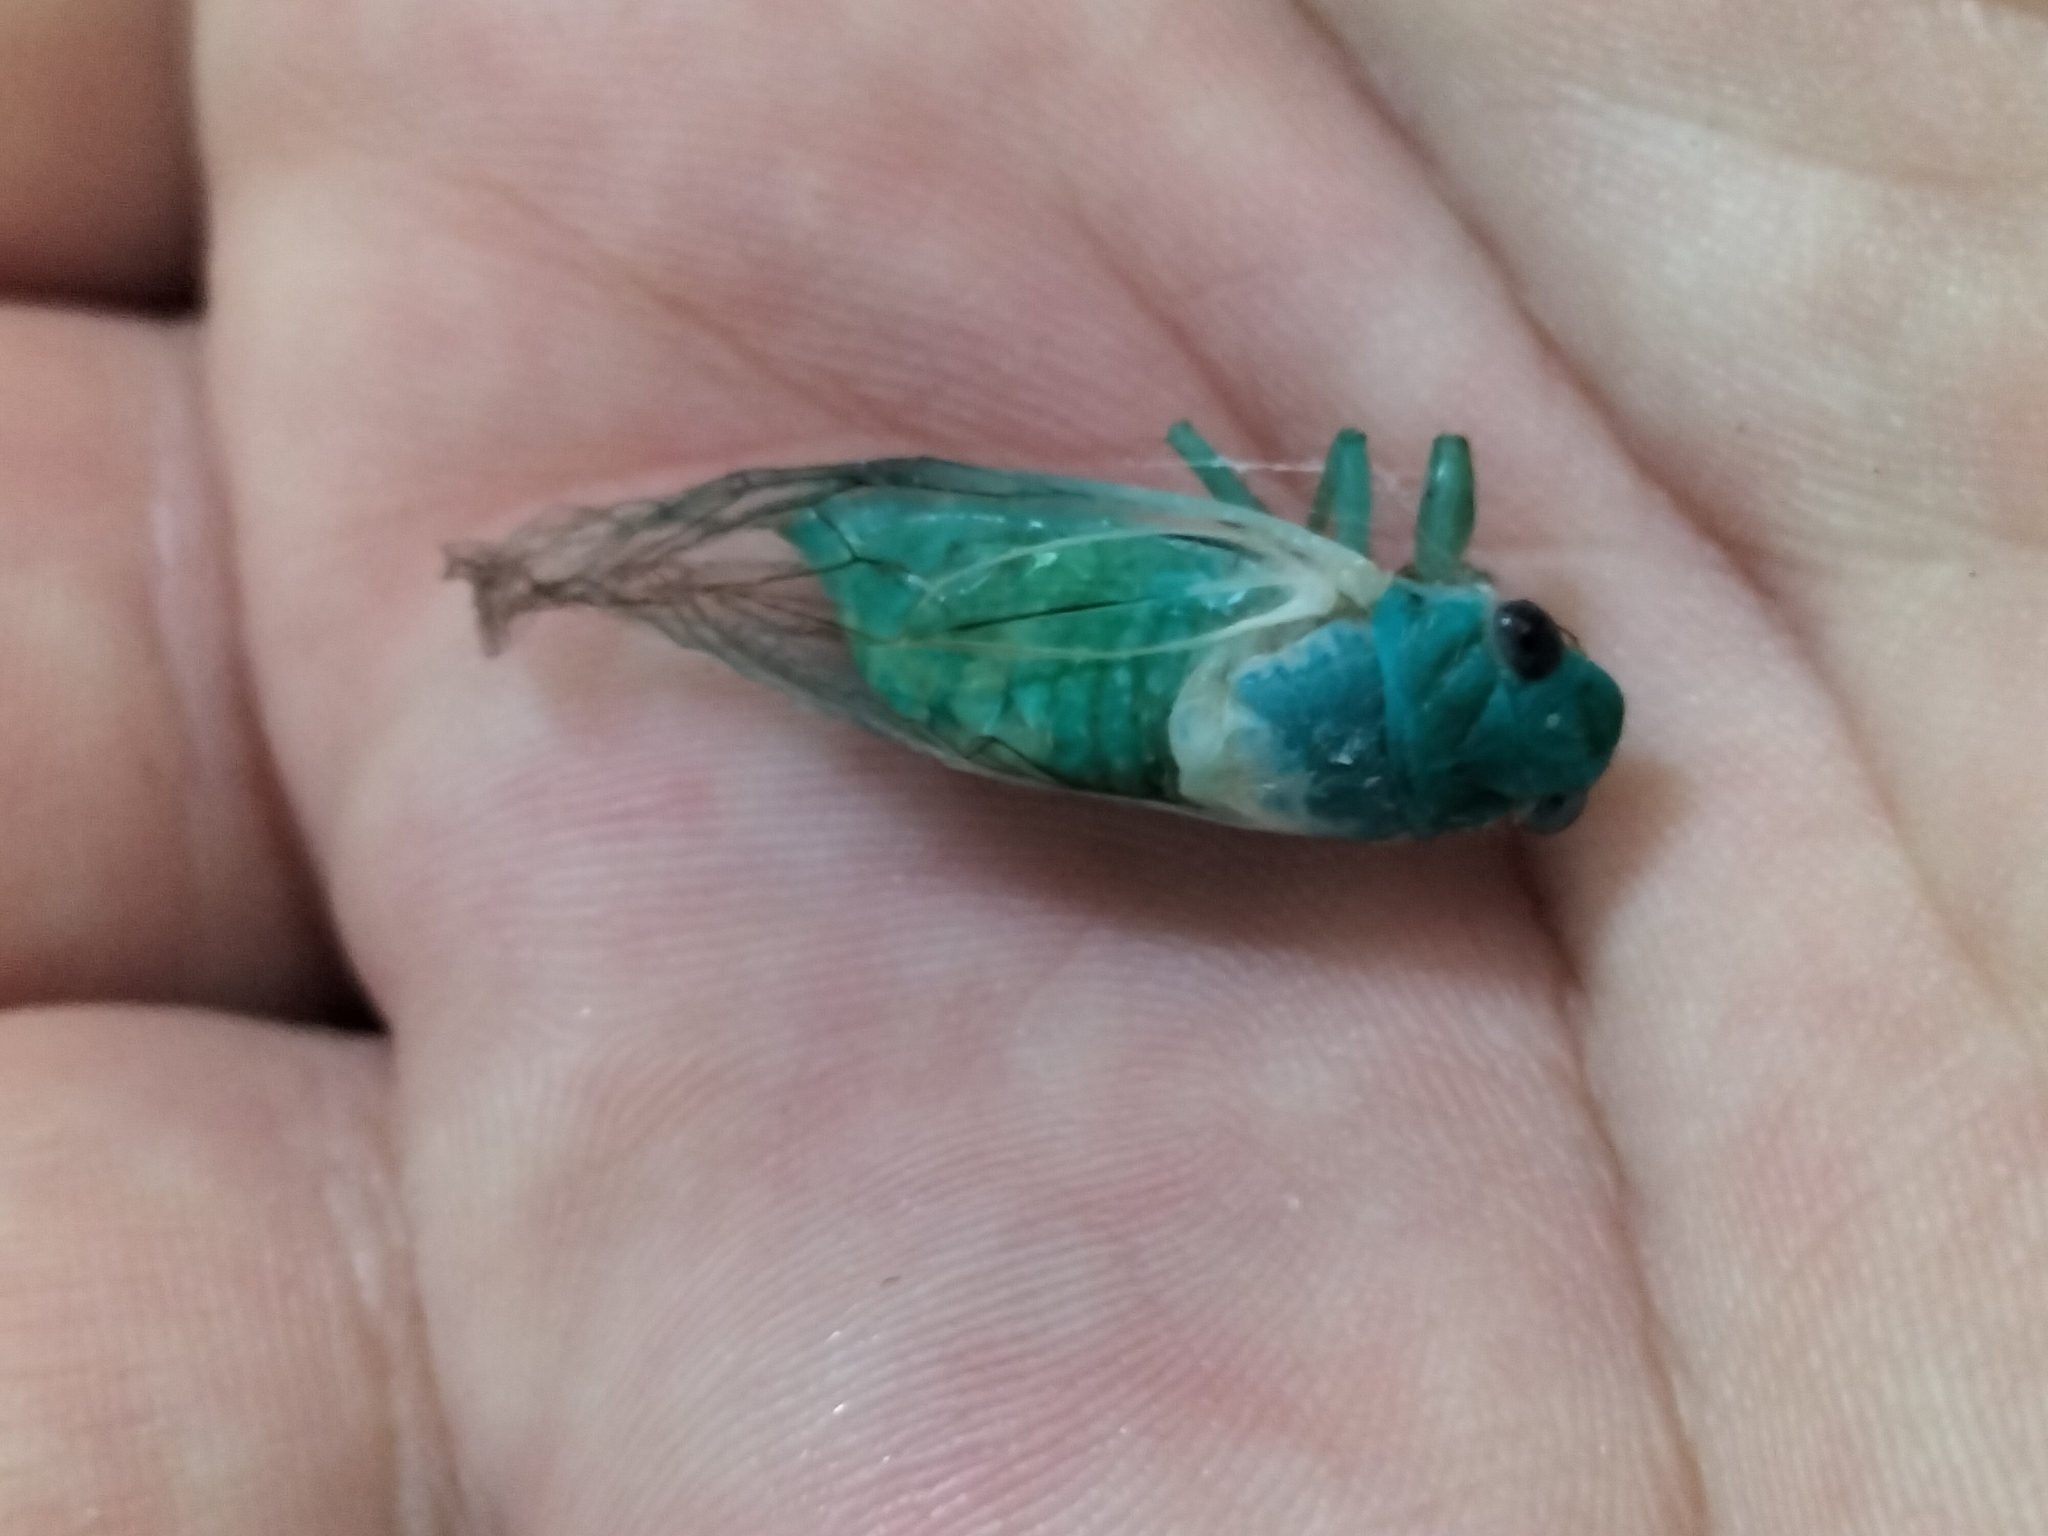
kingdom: Animalia
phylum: Arthropoda
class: Insecta
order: Hemiptera
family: Cicadidae
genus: Guineapsaltria
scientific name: Guineapsaltria flava
